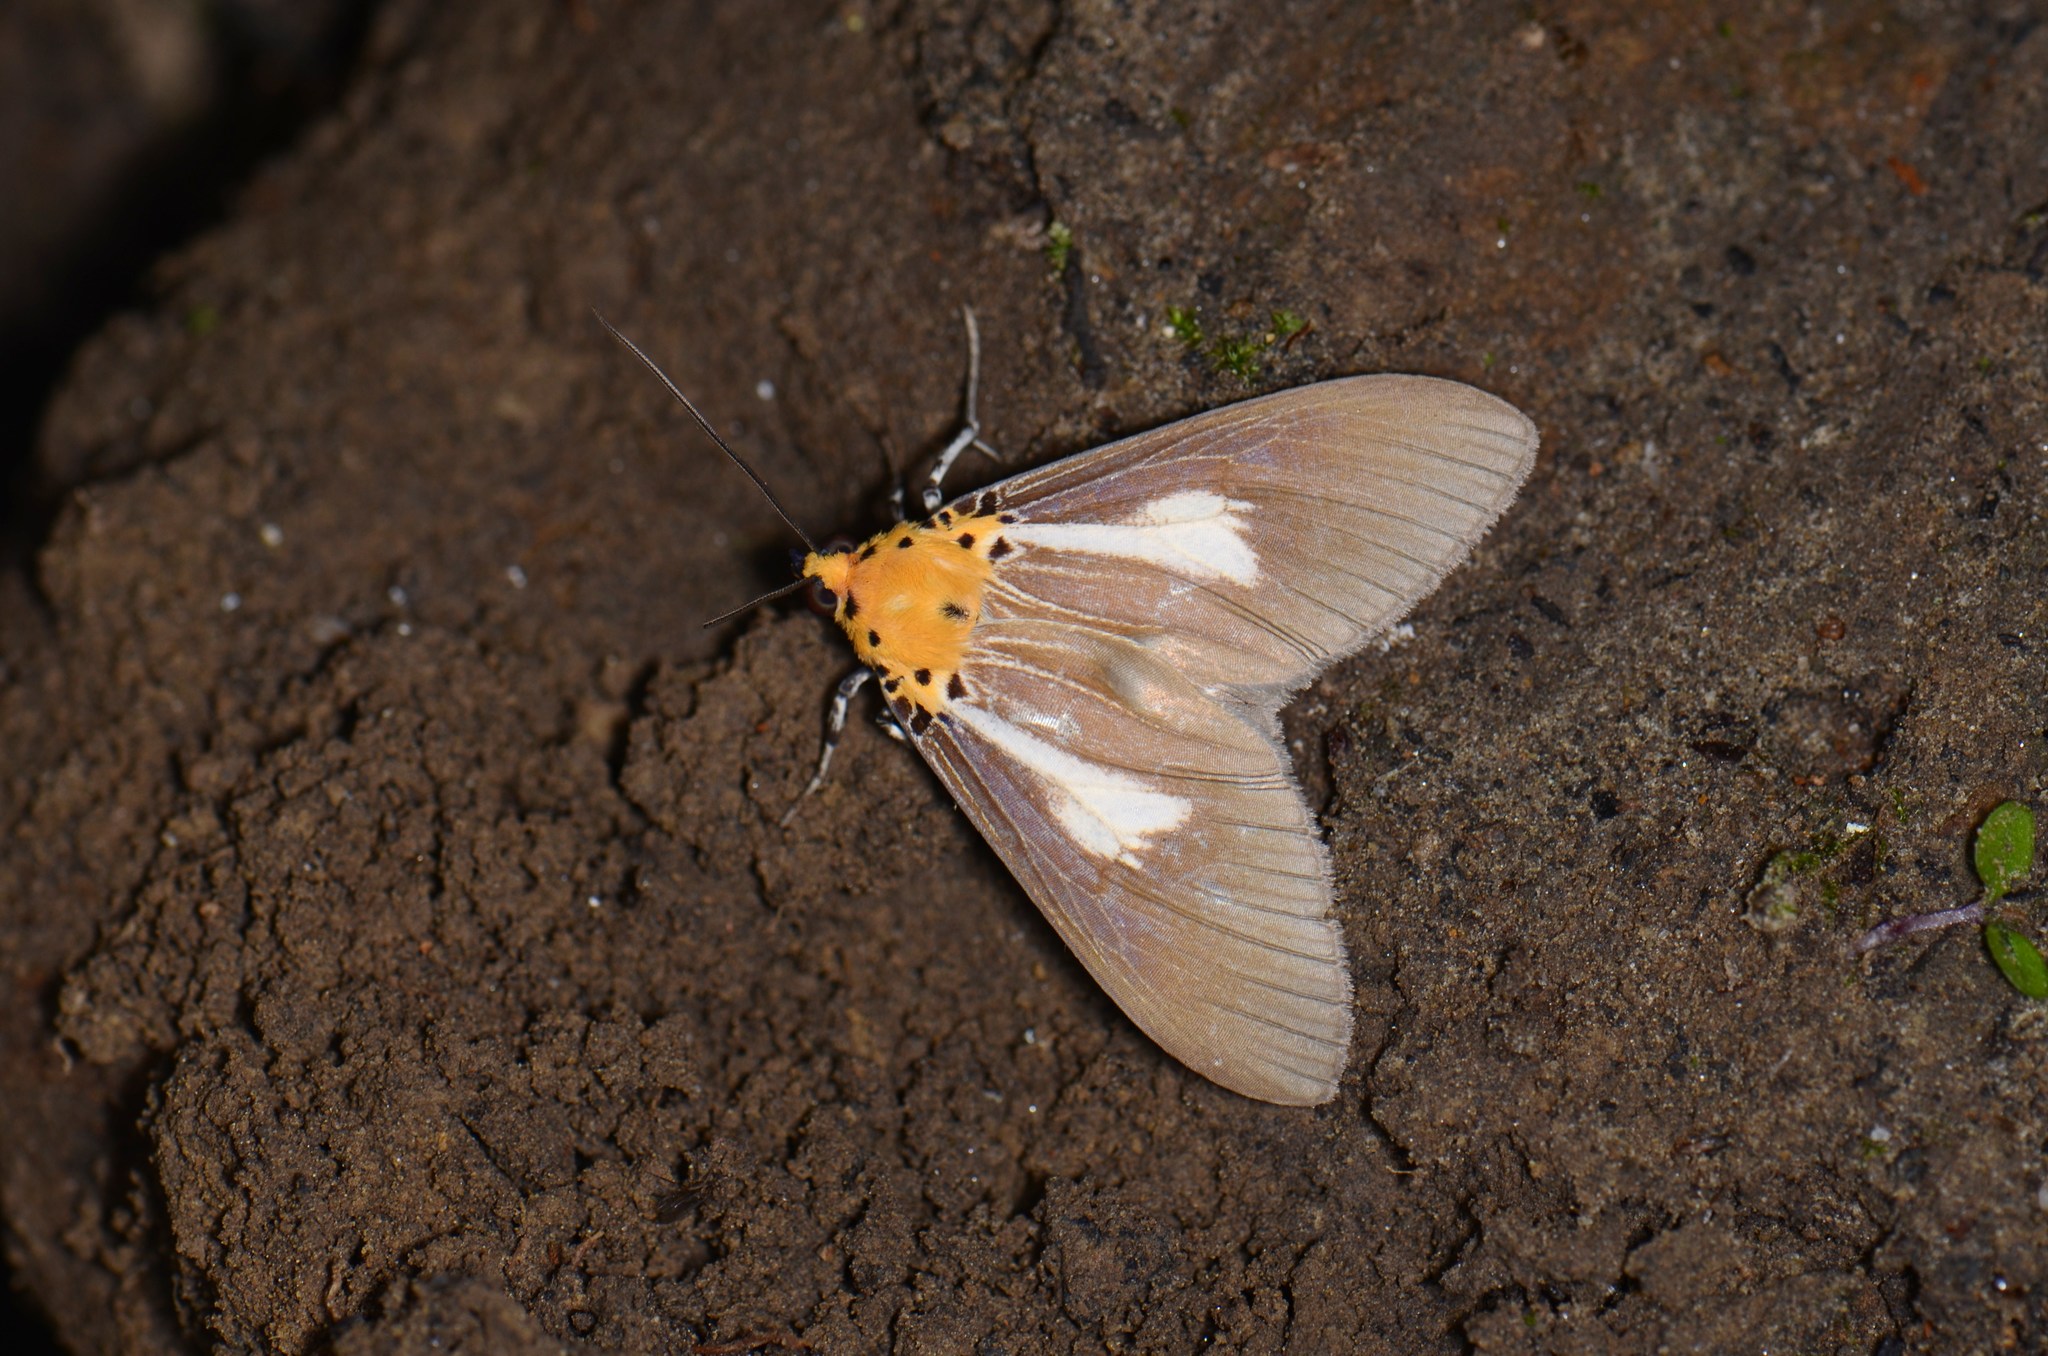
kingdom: Animalia
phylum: Arthropoda
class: Insecta
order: Lepidoptera
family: Erebidae
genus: Asota
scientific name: Asota heliconia
